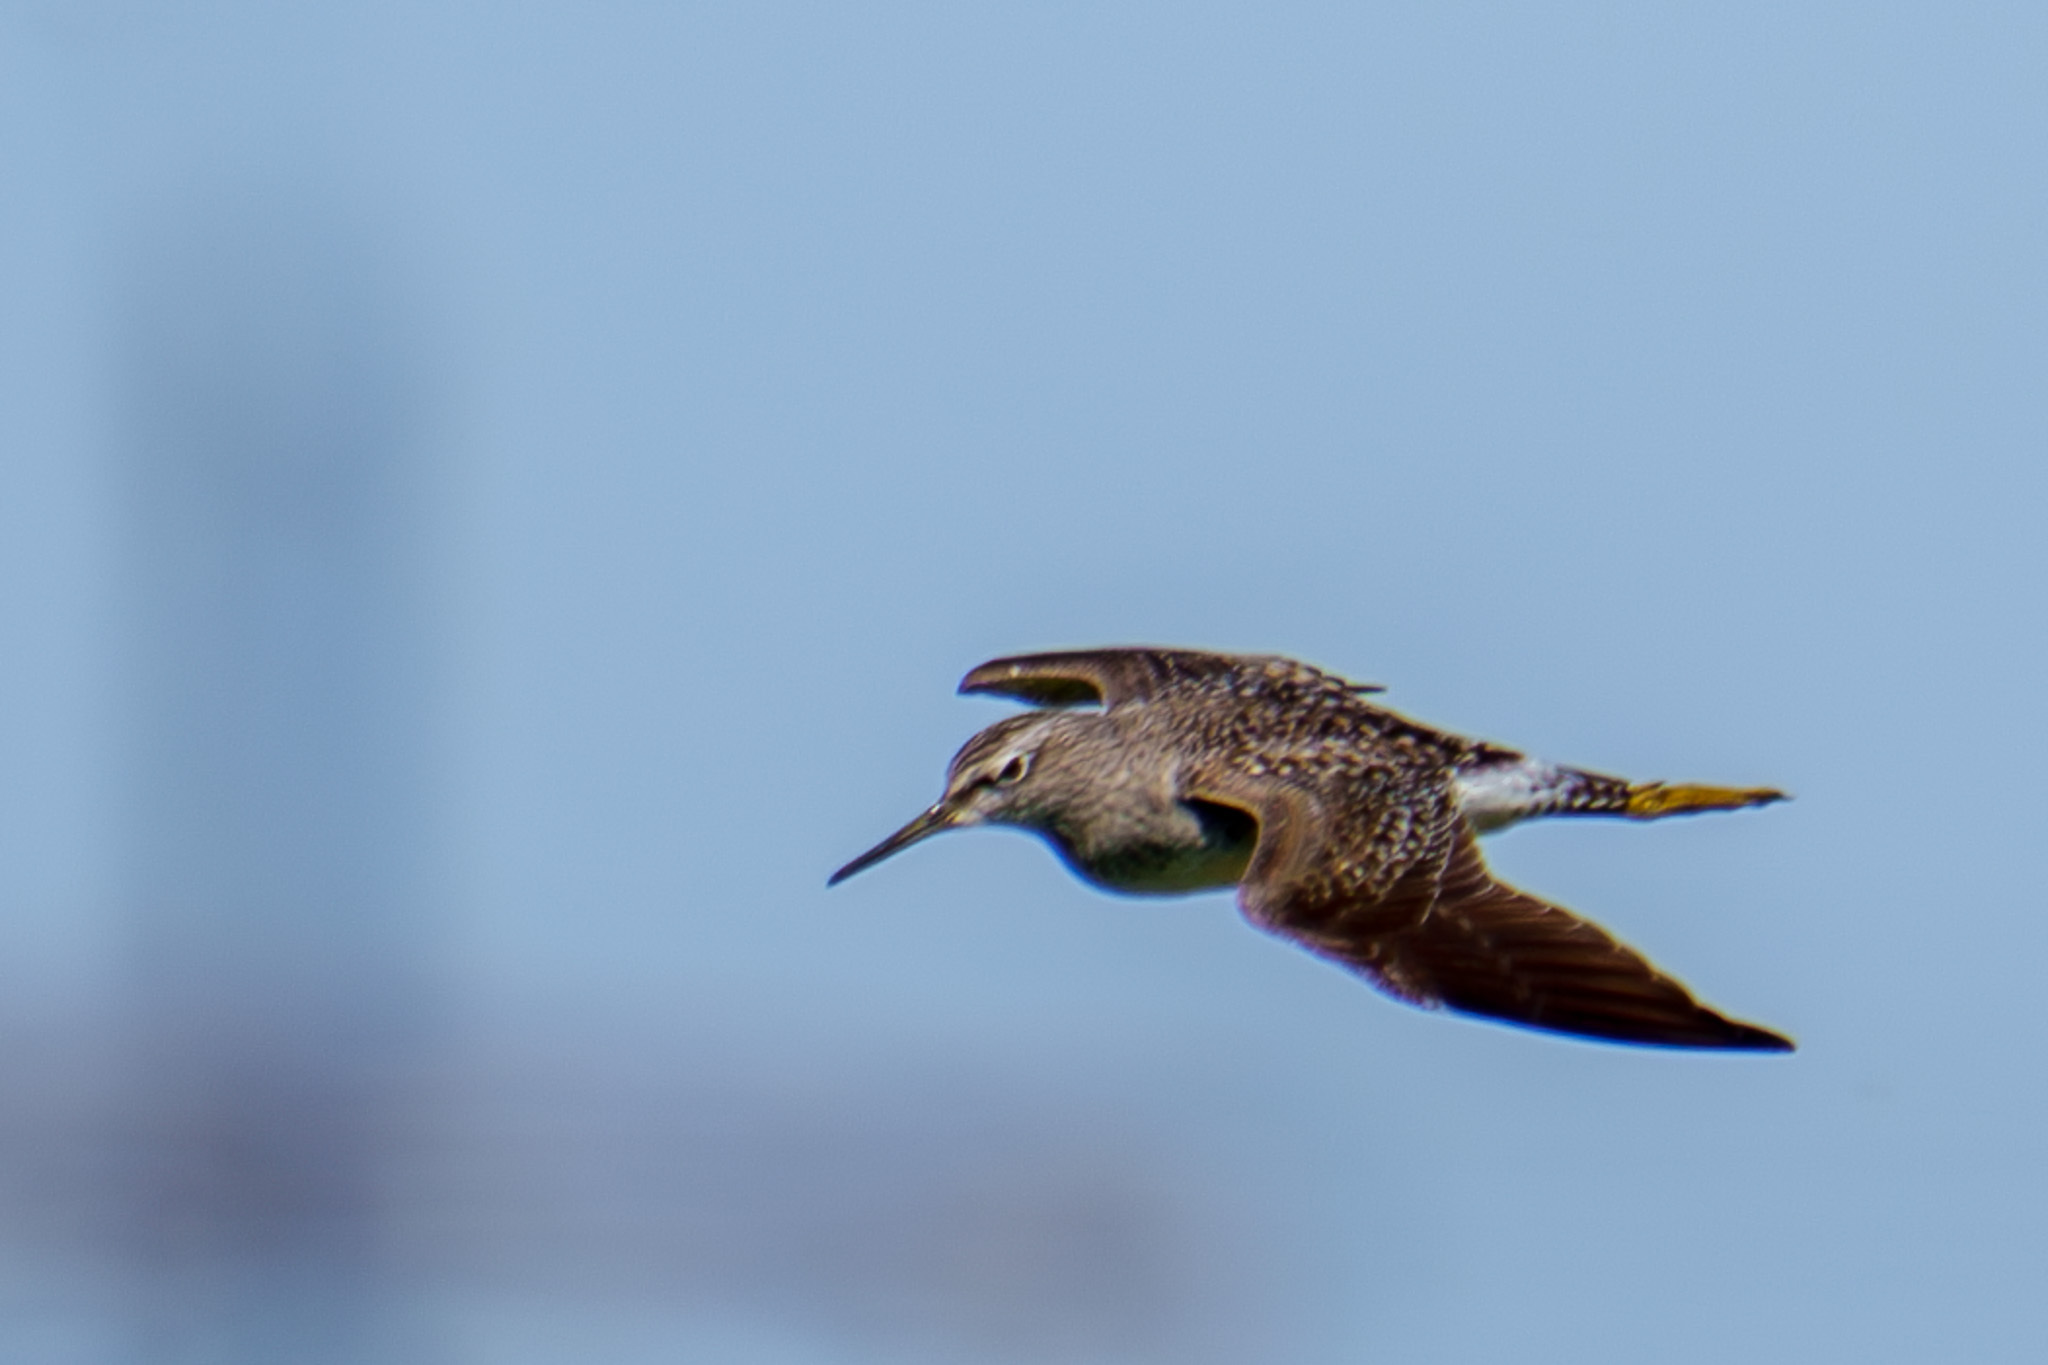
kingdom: Animalia
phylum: Chordata
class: Aves
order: Charadriiformes
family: Scolopacidae
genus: Tringa
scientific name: Tringa glareola
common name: Wood sandpiper
